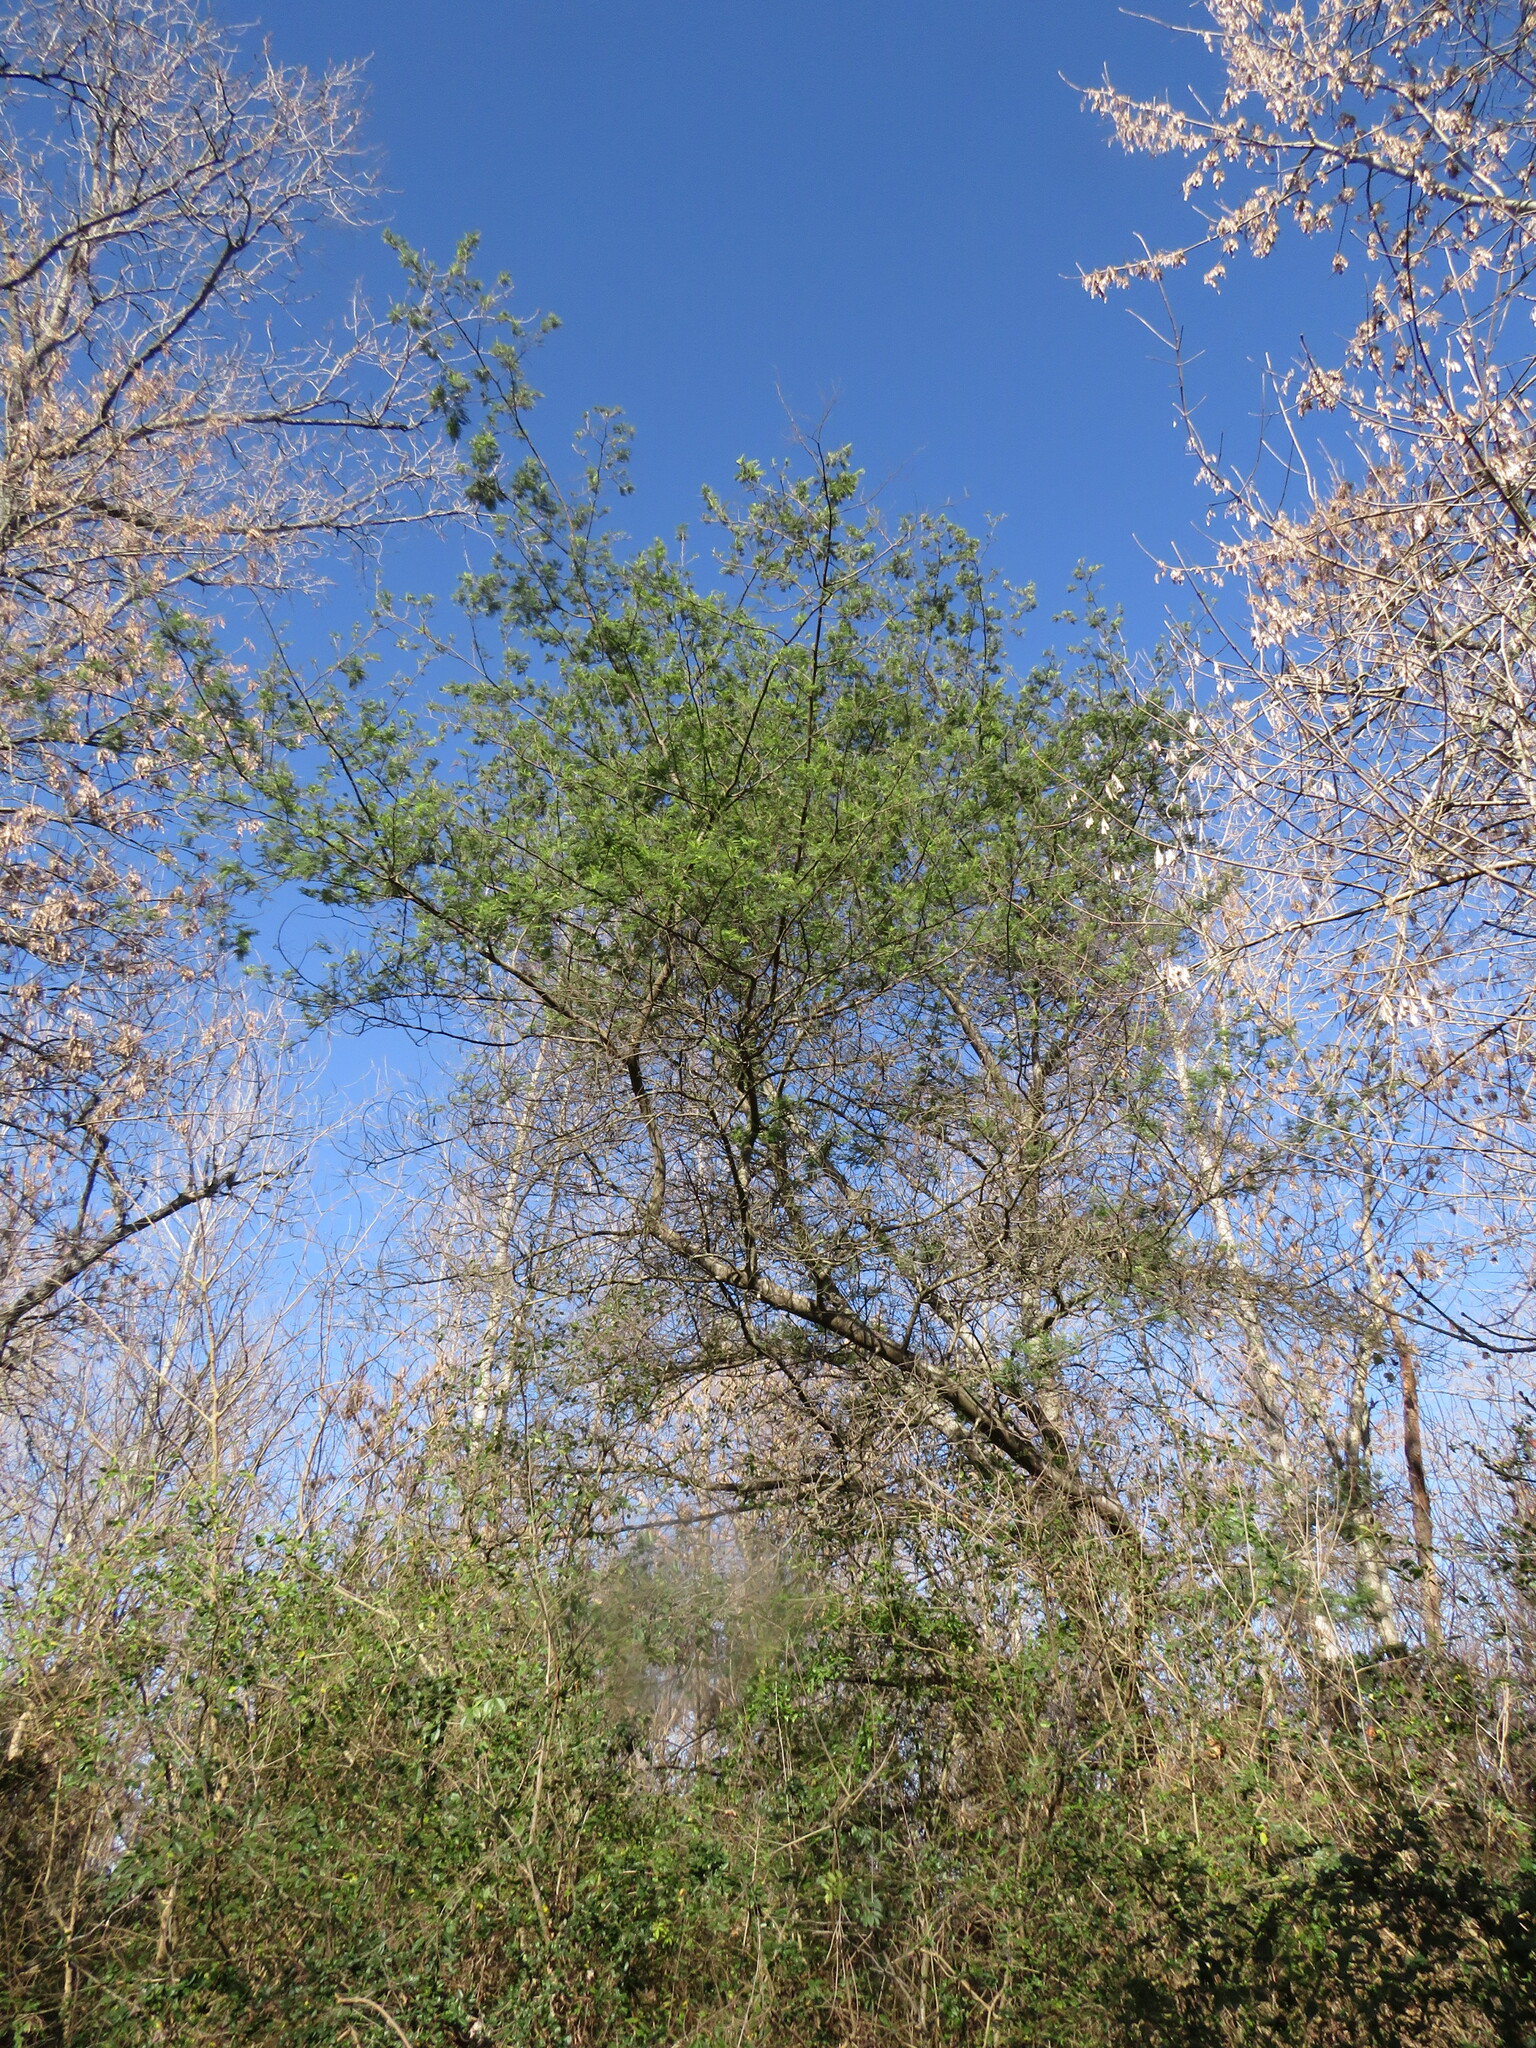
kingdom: Plantae
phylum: Tracheophyta
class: Magnoliopsida
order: Fabales
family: Fabaceae
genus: Vachellia
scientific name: Vachellia caven
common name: Roman cassie
